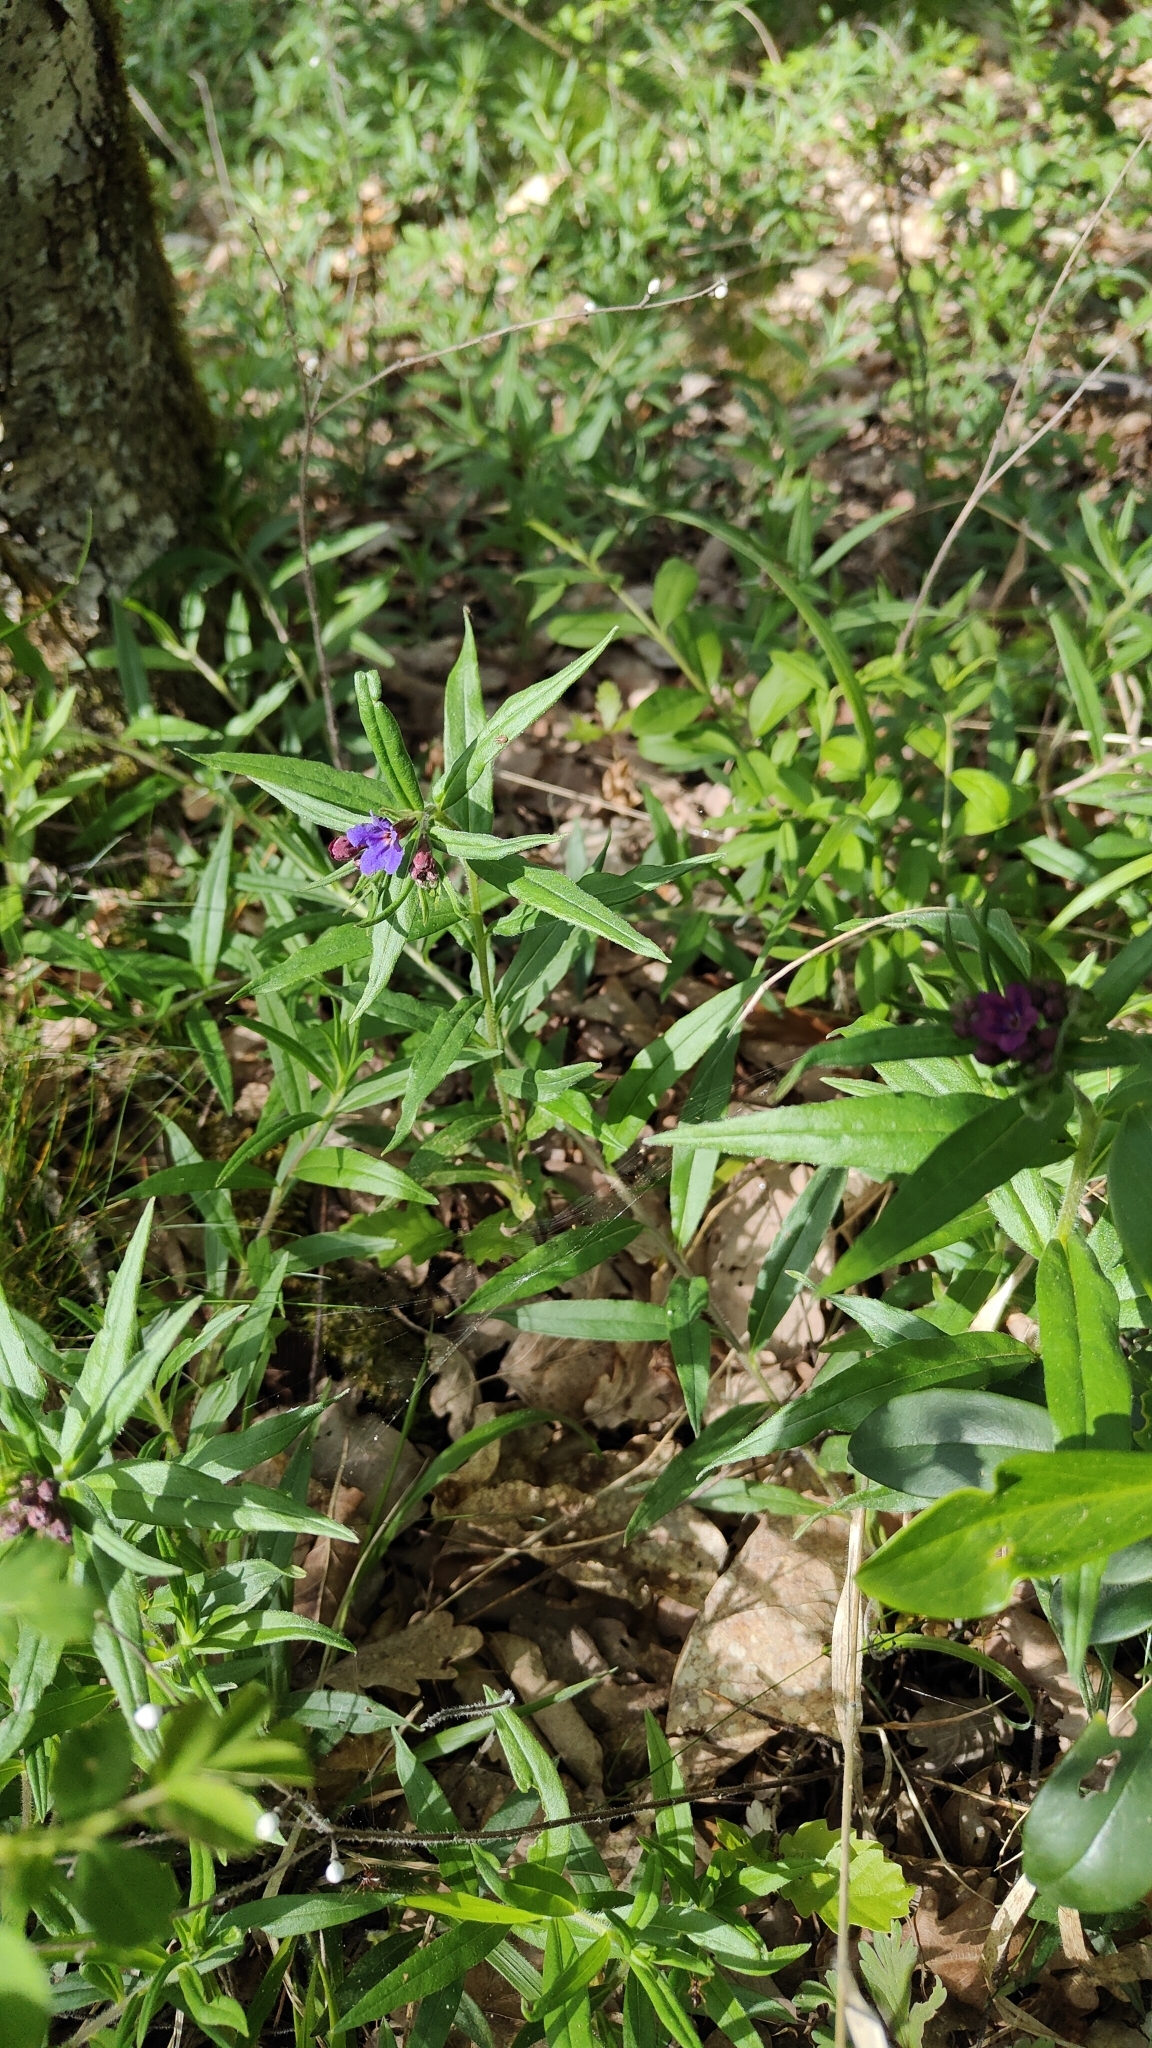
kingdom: Plantae
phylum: Tracheophyta
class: Magnoliopsida
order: Boraginales
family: Boraginaceae
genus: Aegonychon
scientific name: Aegonychon purpurocaeruleum
